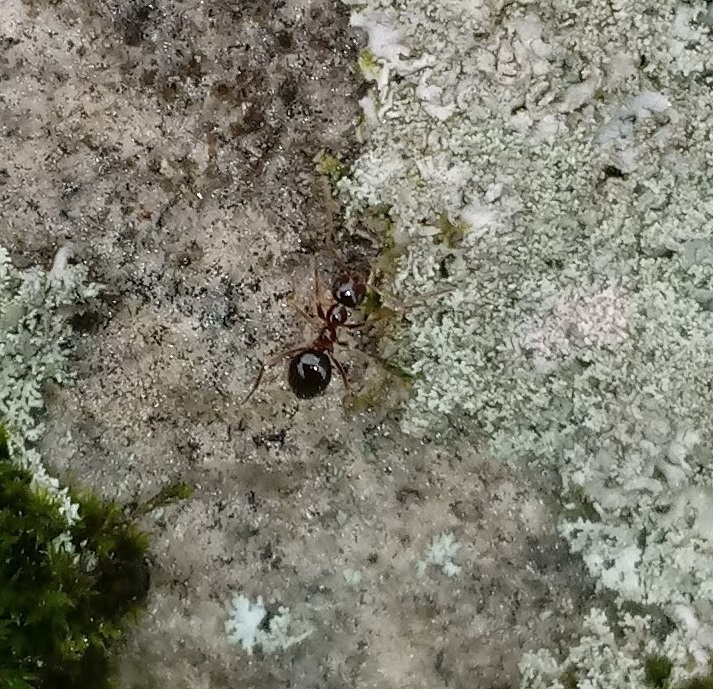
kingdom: Animalia
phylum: Arthropoda
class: Insecta
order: Hymenoptera
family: Formicidae
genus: Prenolepis
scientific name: Prenolepis imparis
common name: Small honey ant
